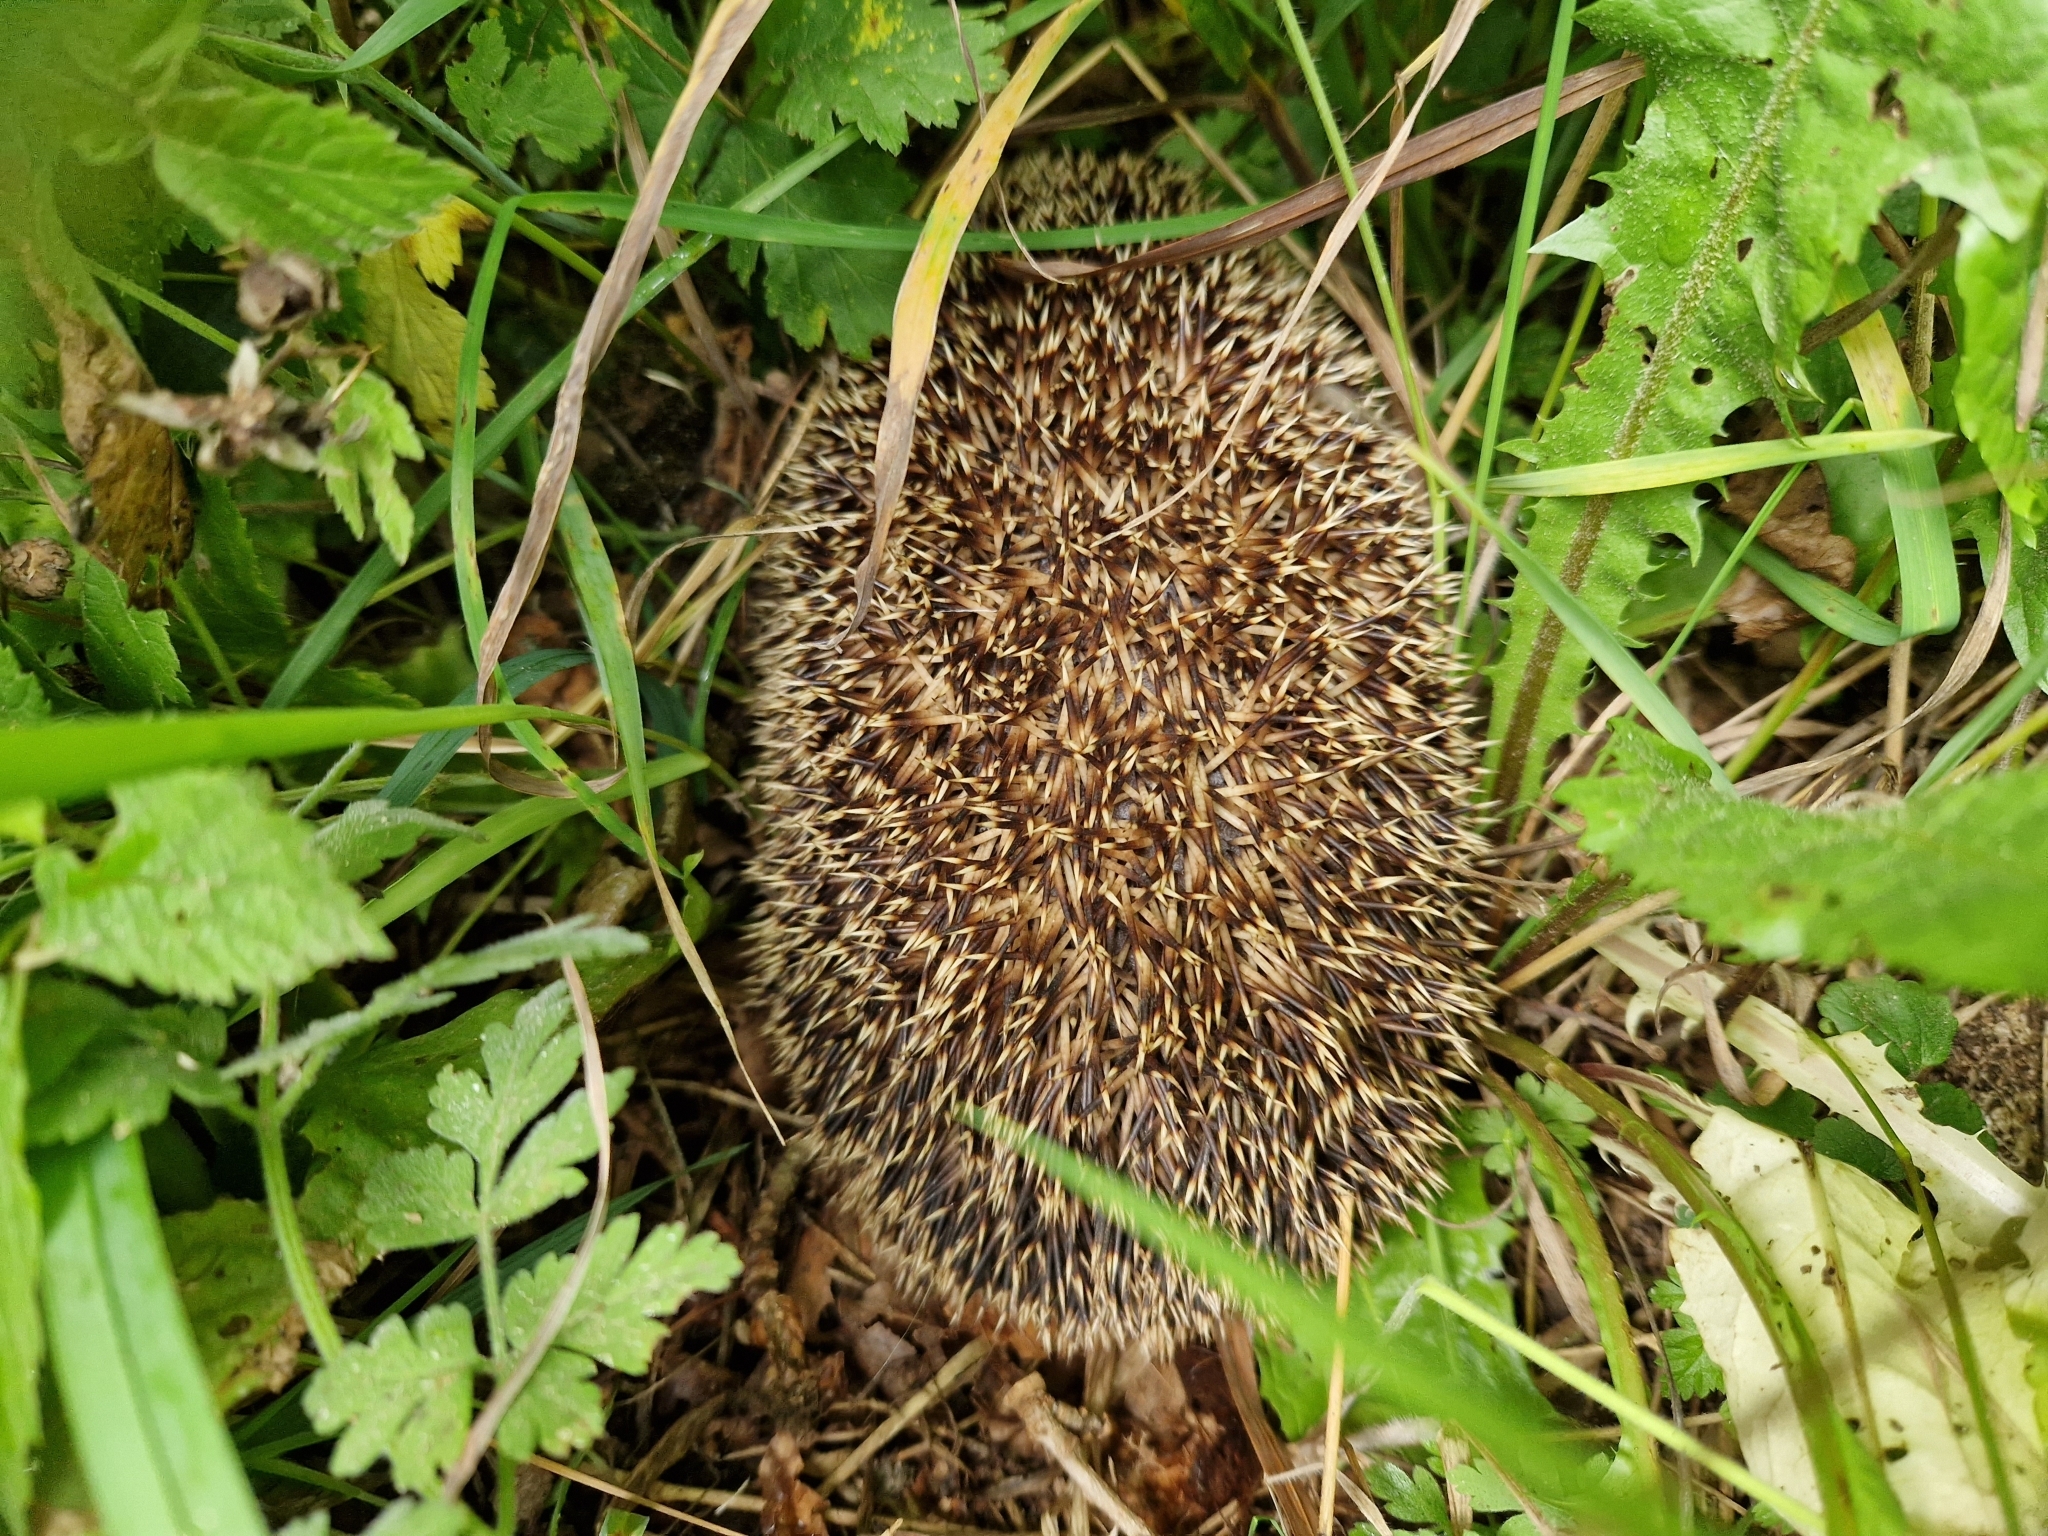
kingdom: Animalia
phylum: Chordata
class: Mammalia
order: Erinaceomorpha
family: Erinaceidae
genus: Erinaceus
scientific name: Erinaceus europaeus
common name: West european hedgehog
